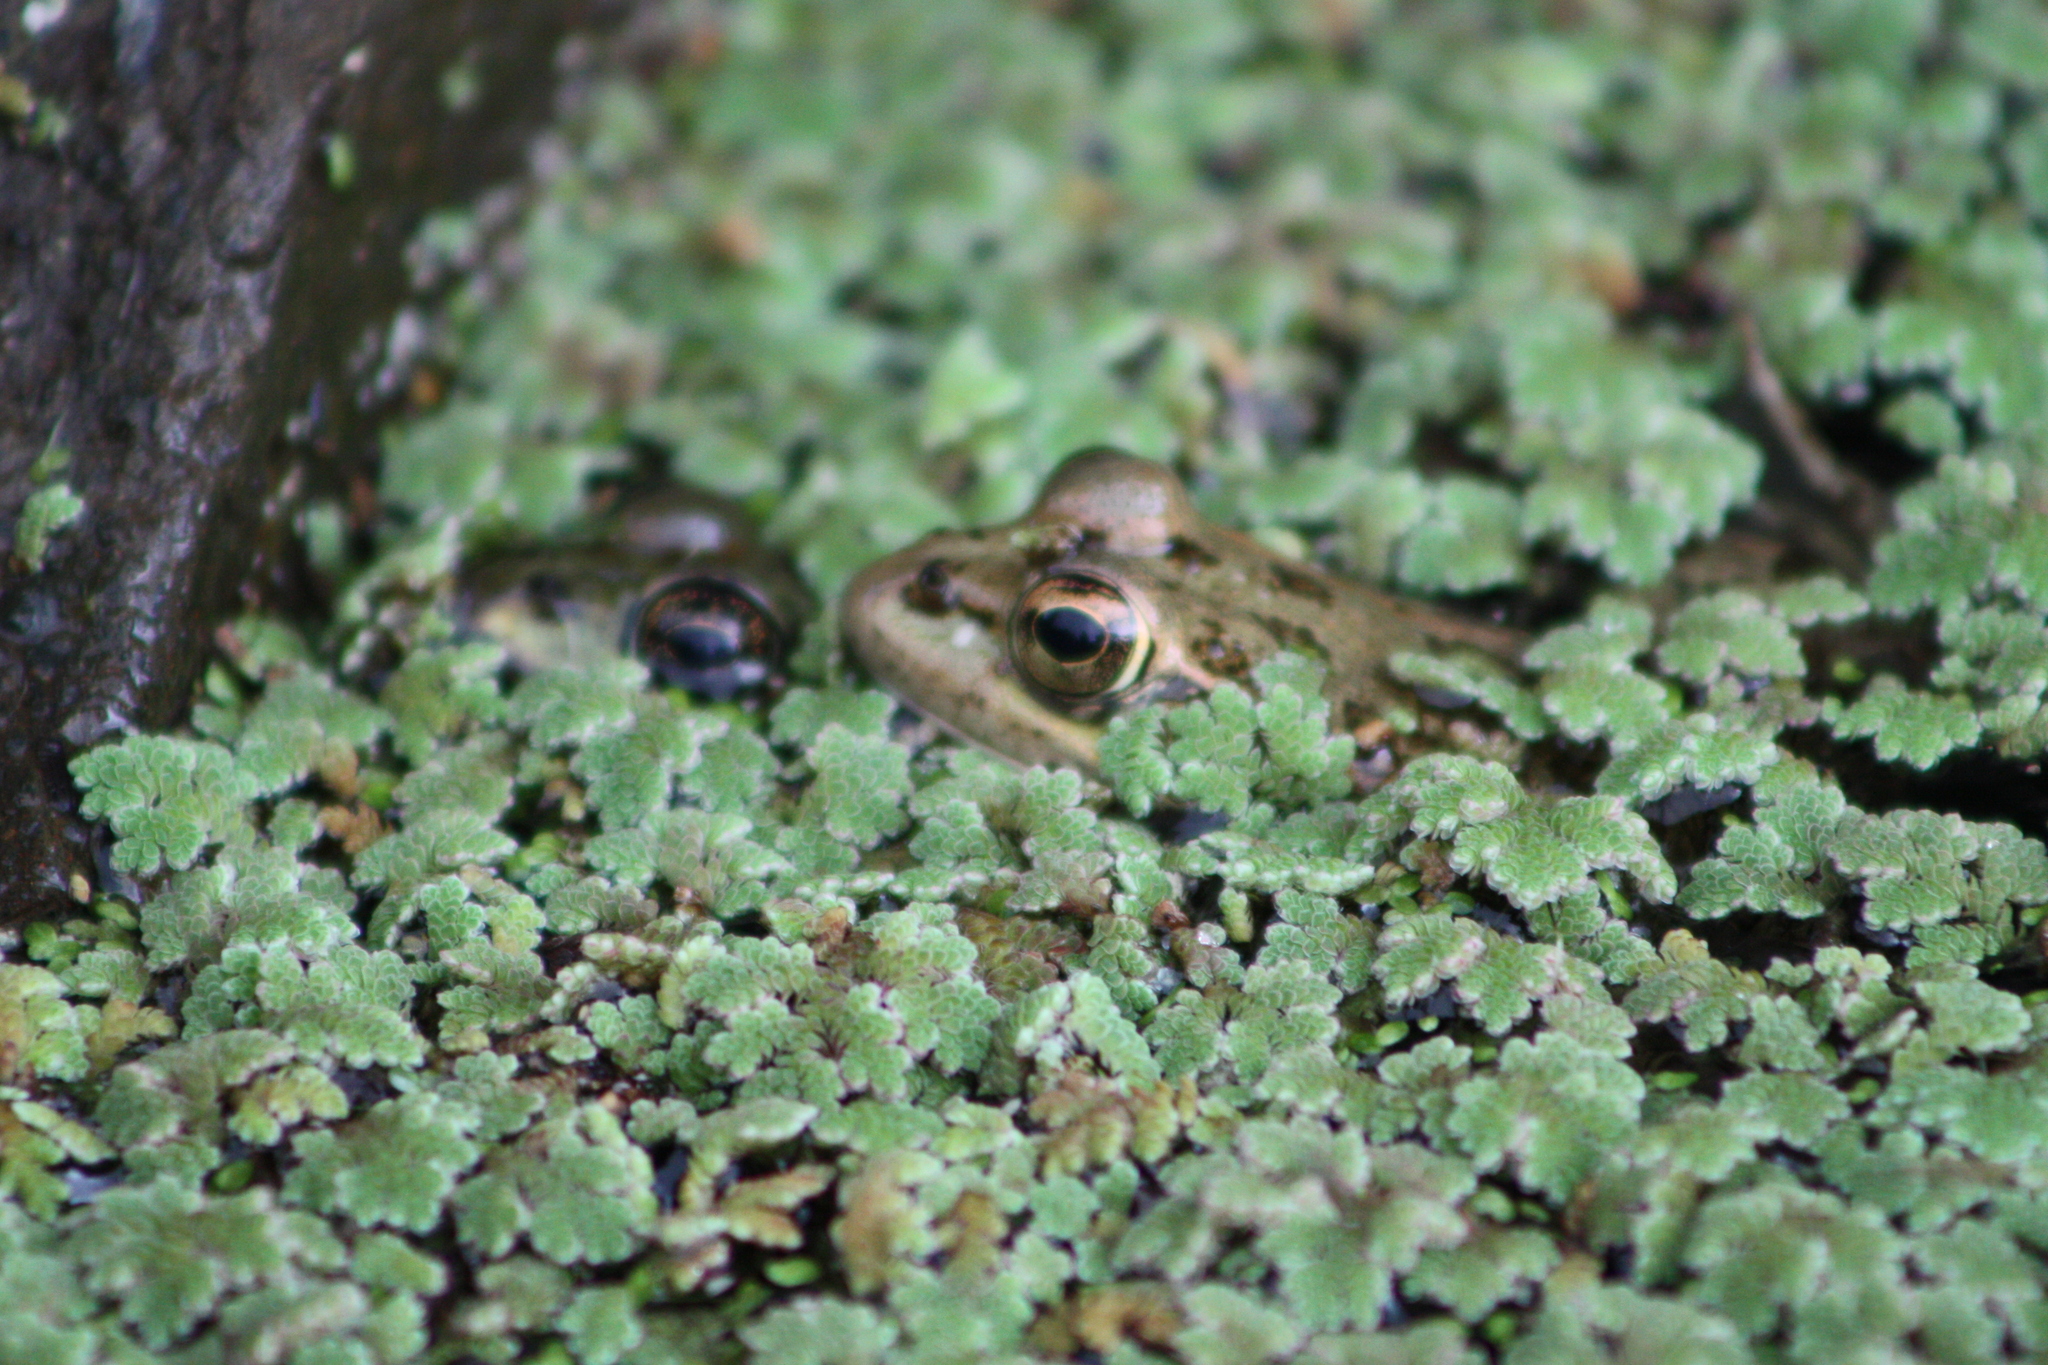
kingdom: Animalia
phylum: Chordata
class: Amphibia
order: Anura
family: Ranidae
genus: Pelophylax
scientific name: Pelophylax perezi
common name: Perez's frog
